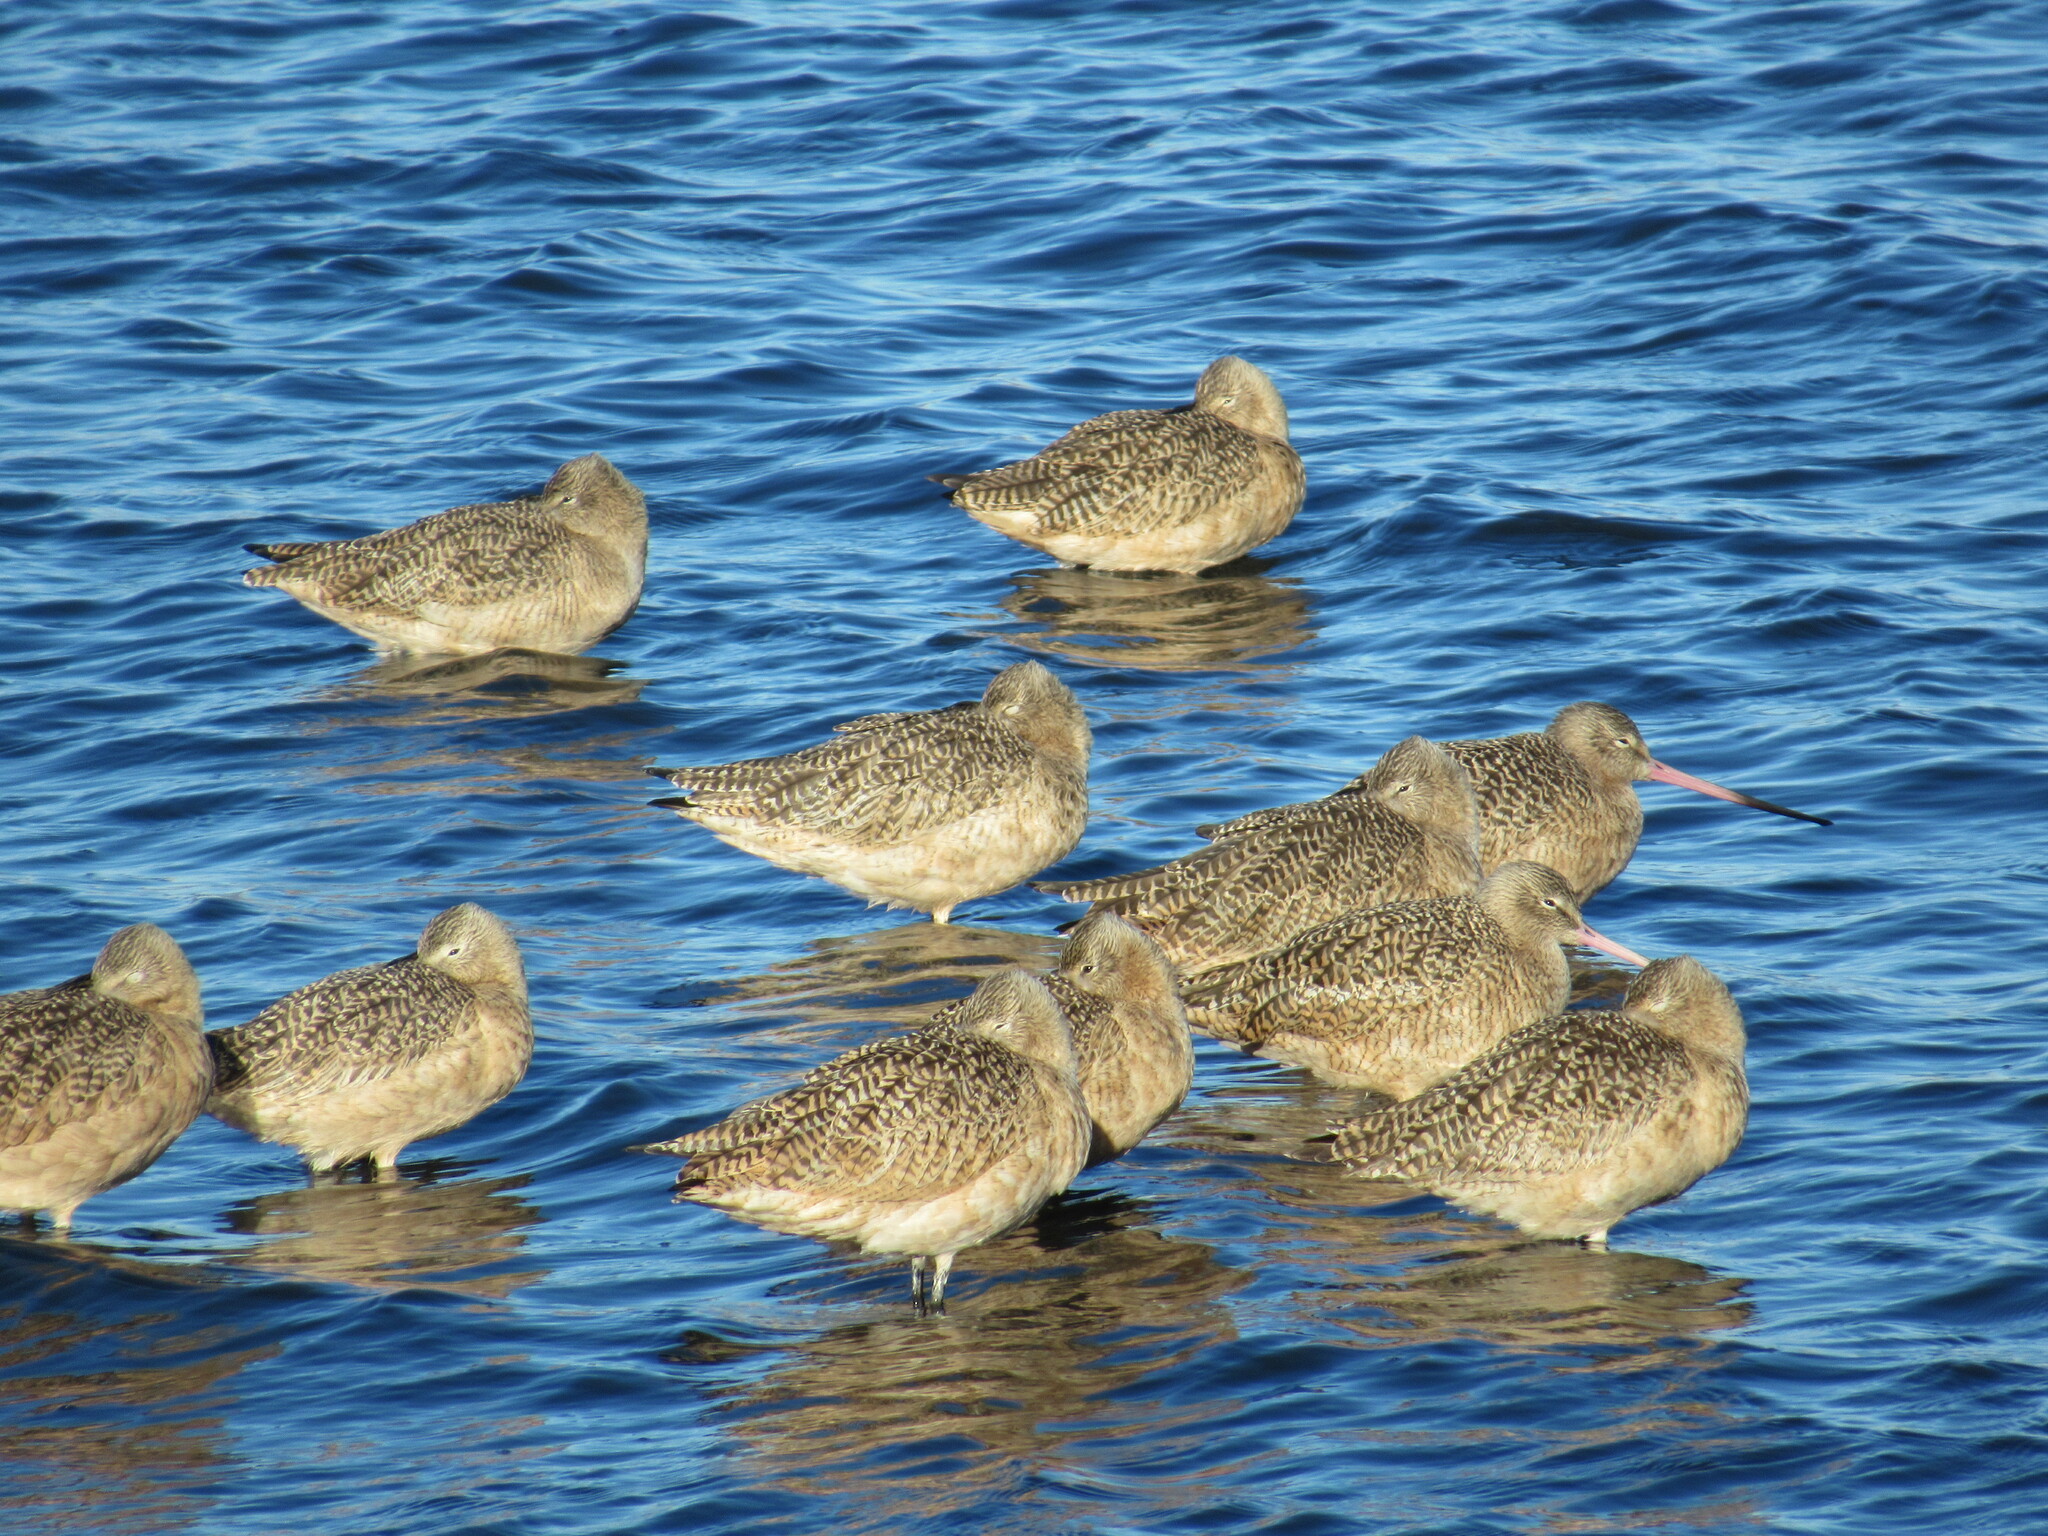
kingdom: Animalia
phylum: Chordata
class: Aves
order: Charadriiformes
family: Scolopacidae
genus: Limosa
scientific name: Limosa fedoa
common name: Marbled godwit
